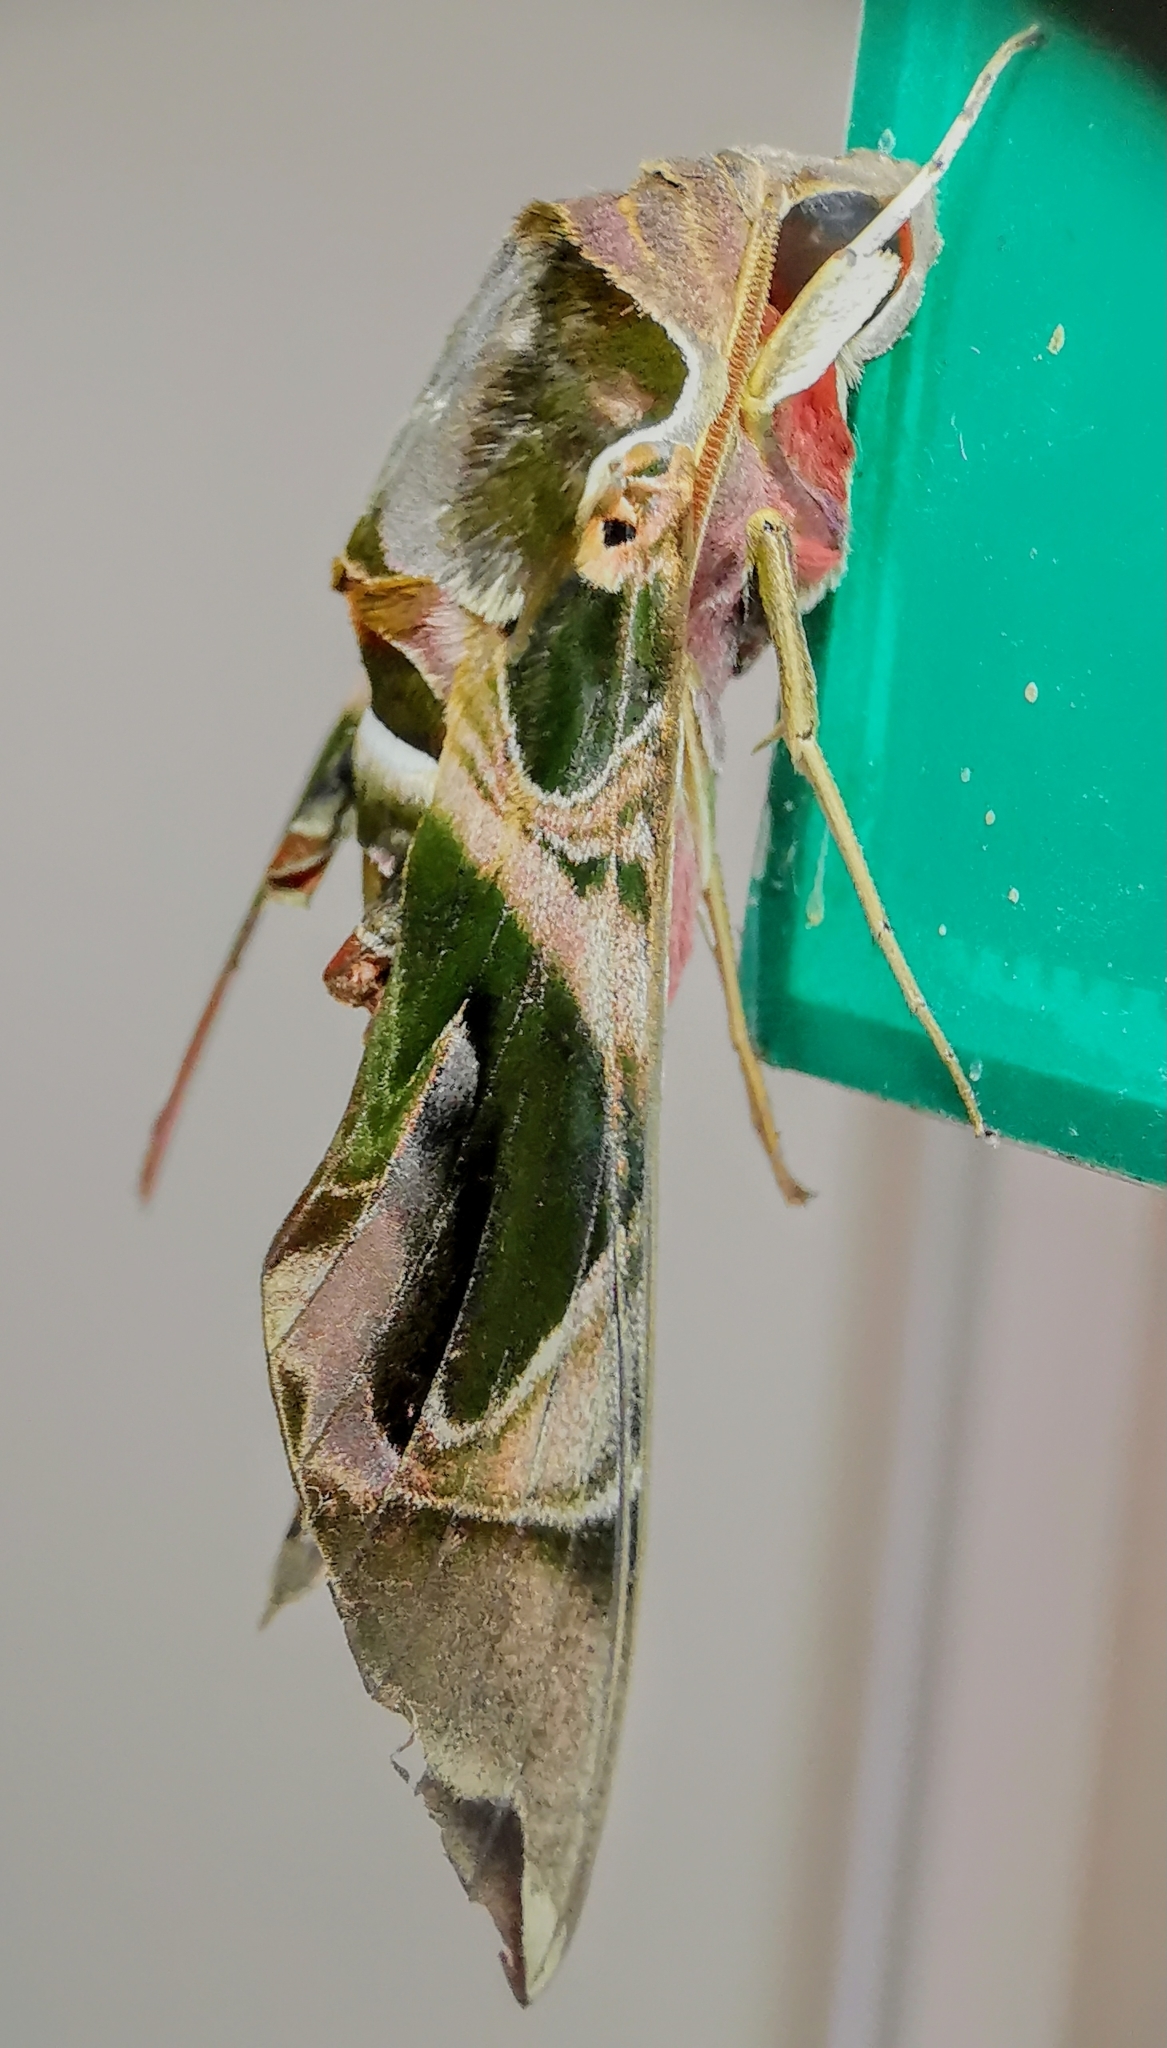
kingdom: Animalia
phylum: Arthropoda
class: Insecta
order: Lepidoptera
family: Sphingidae
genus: Daphnis
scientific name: Daphnis hypothous
